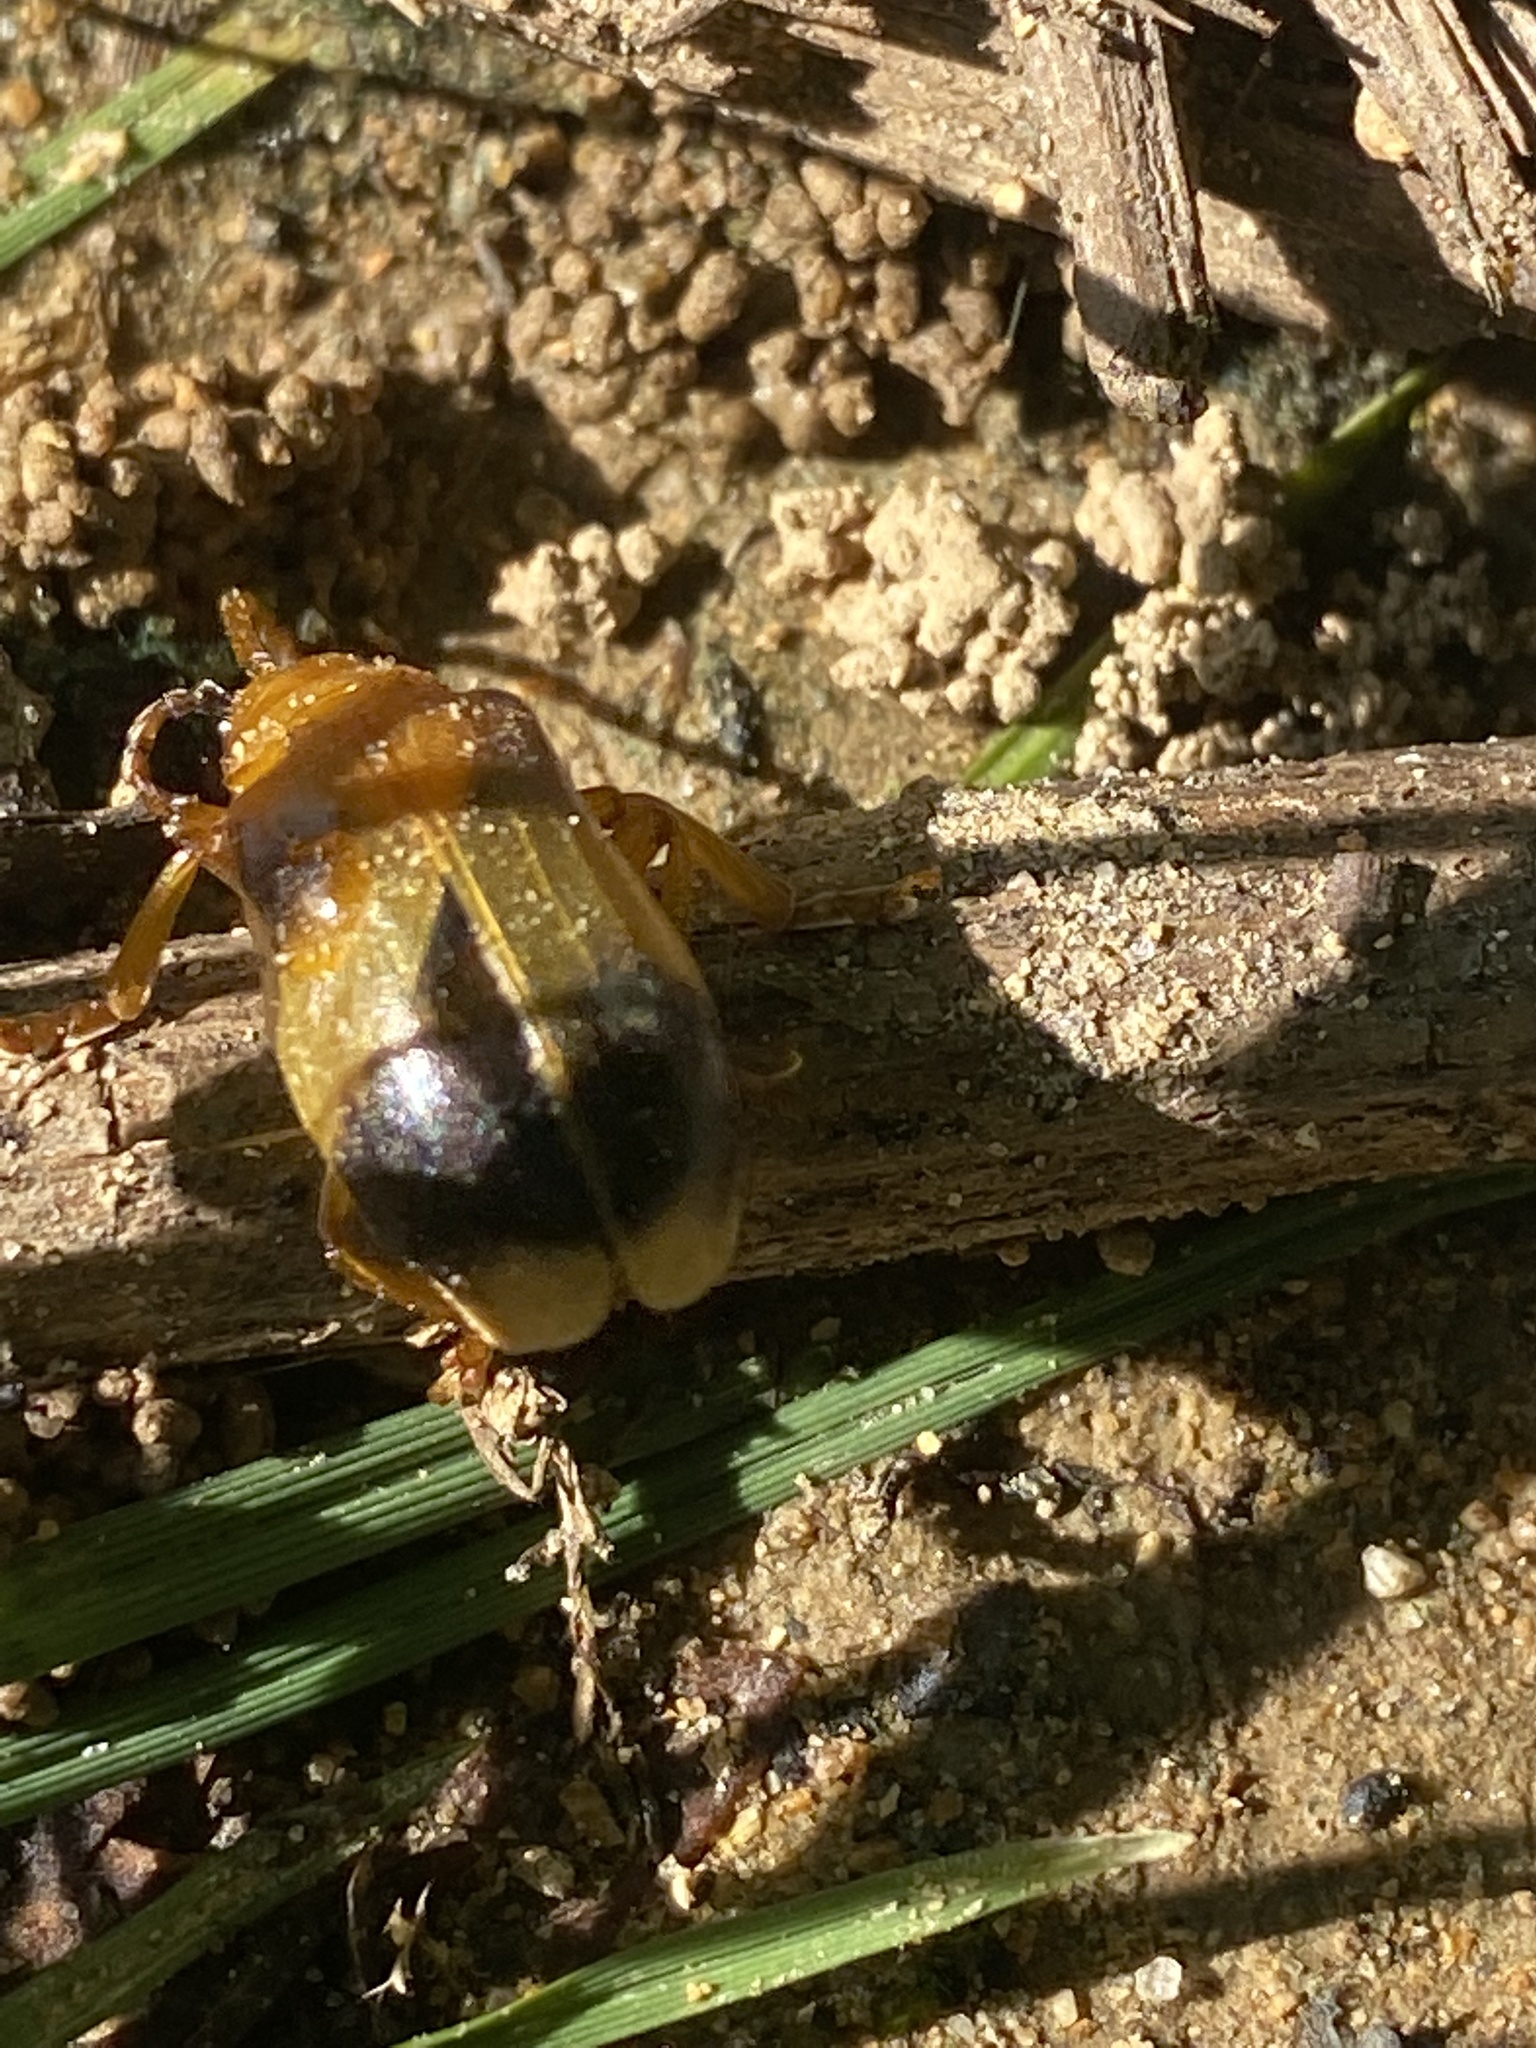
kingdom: Animalia
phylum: Arthropoda
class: Insecta
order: Coleoptera
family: Chrysomelidae
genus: Monocesta
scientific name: Monocesta coryli
